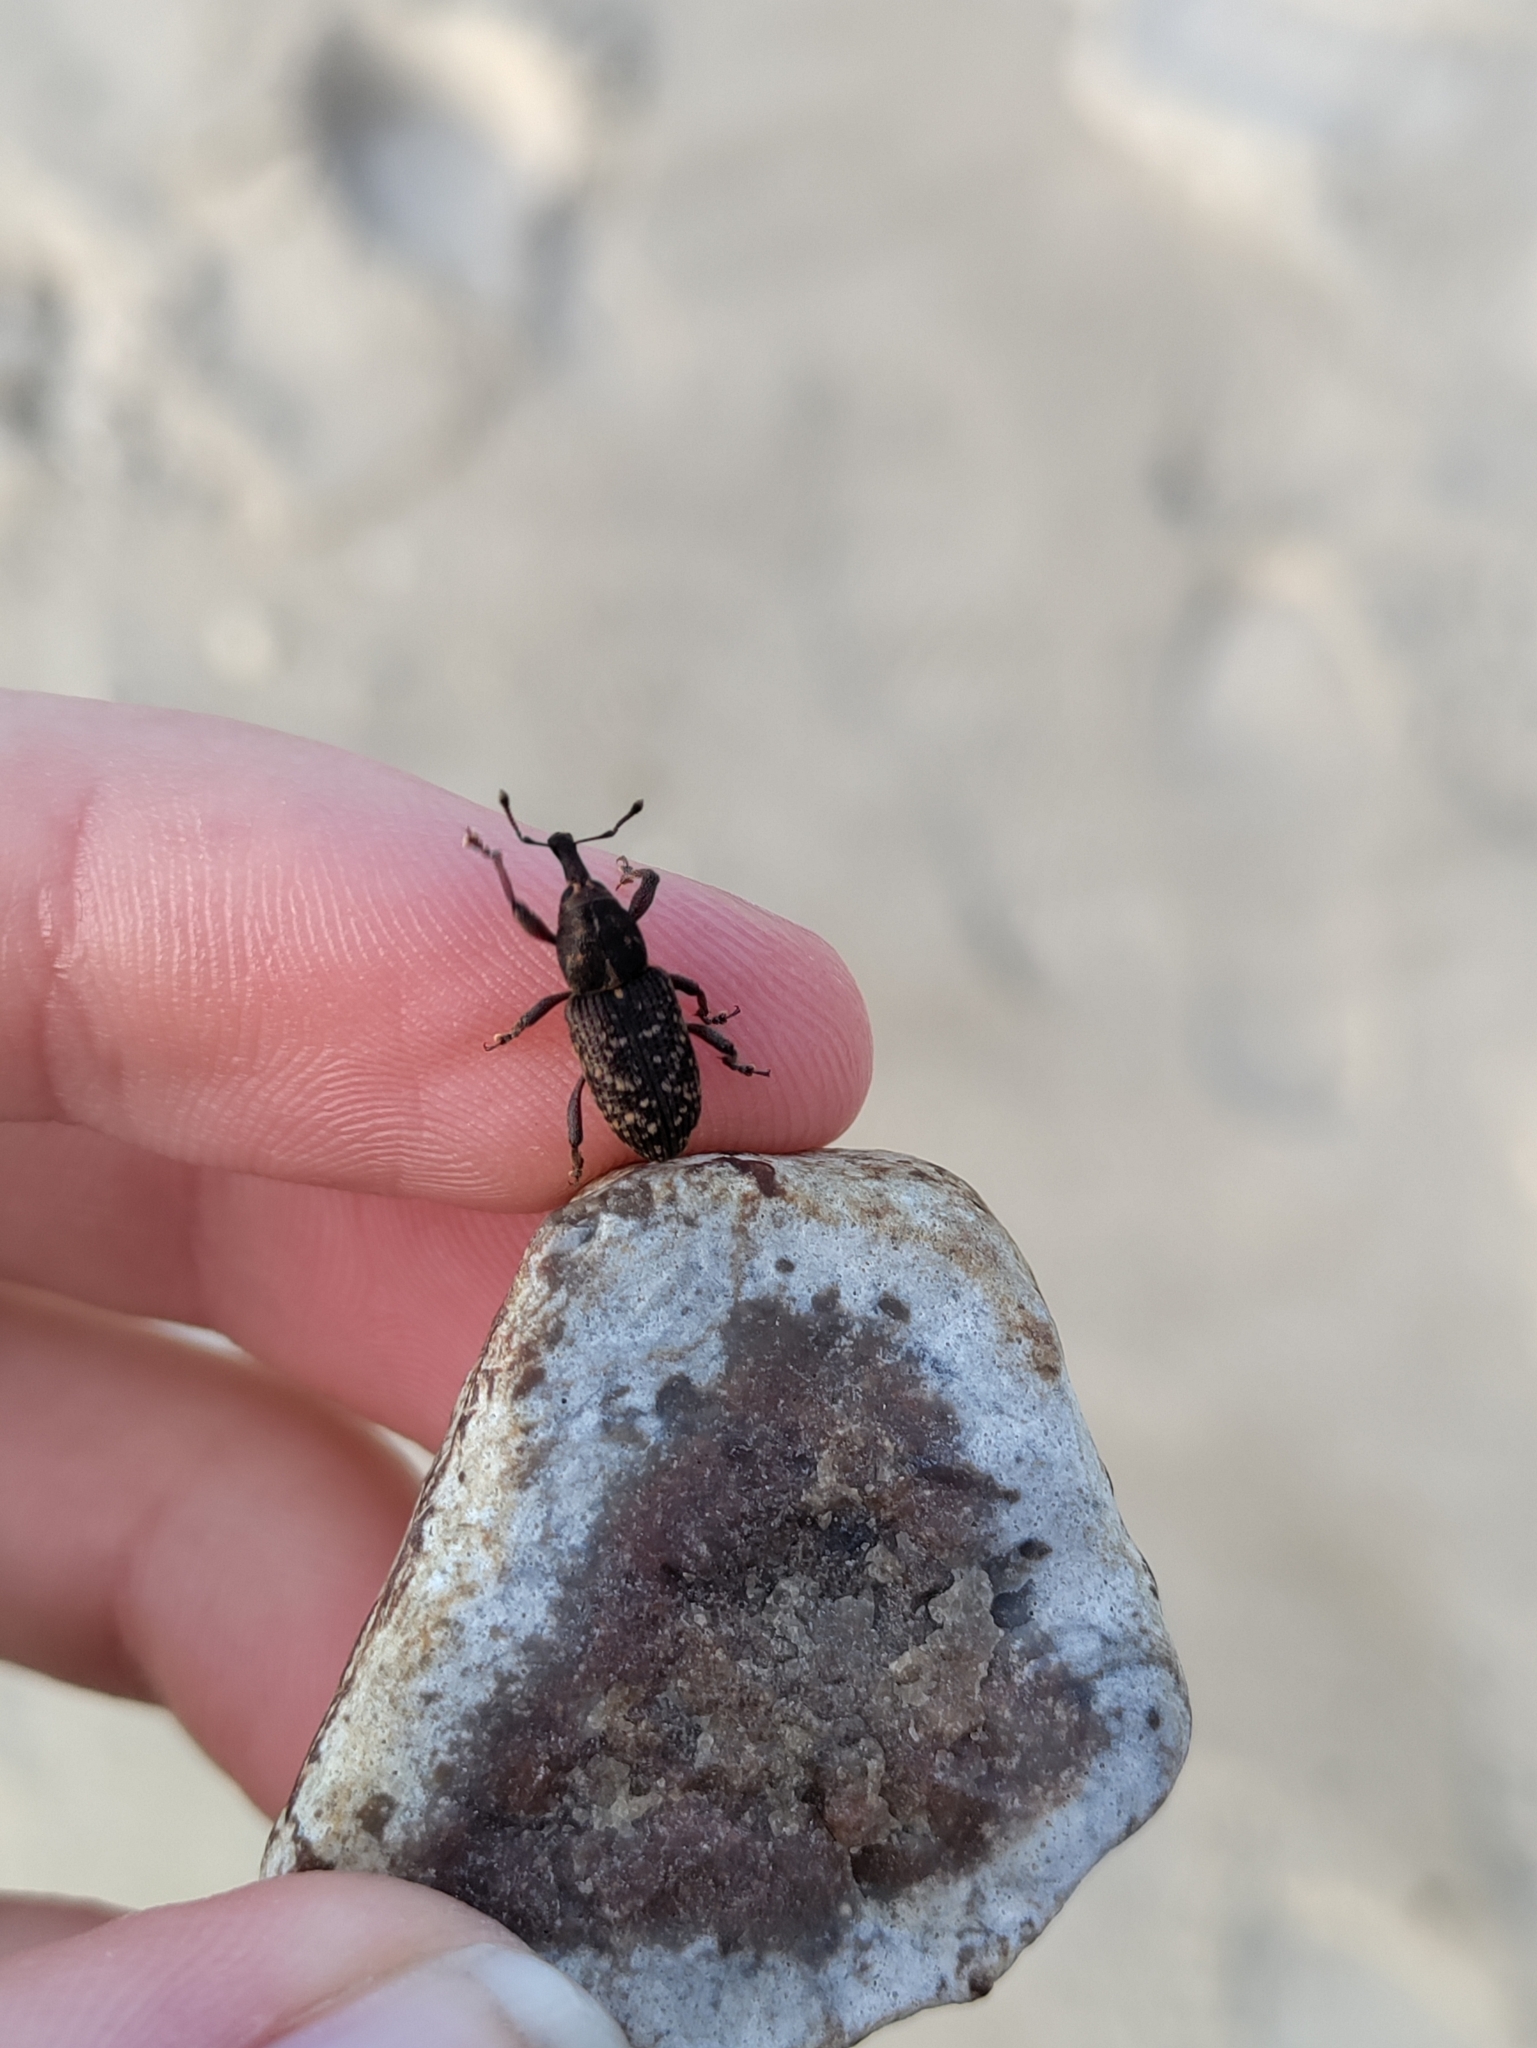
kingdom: Animalia
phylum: Arthropoda
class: Insecta
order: Coleoptera
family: Curculionidae
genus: Hylobius
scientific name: Hylobius pales
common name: Pales weevil
